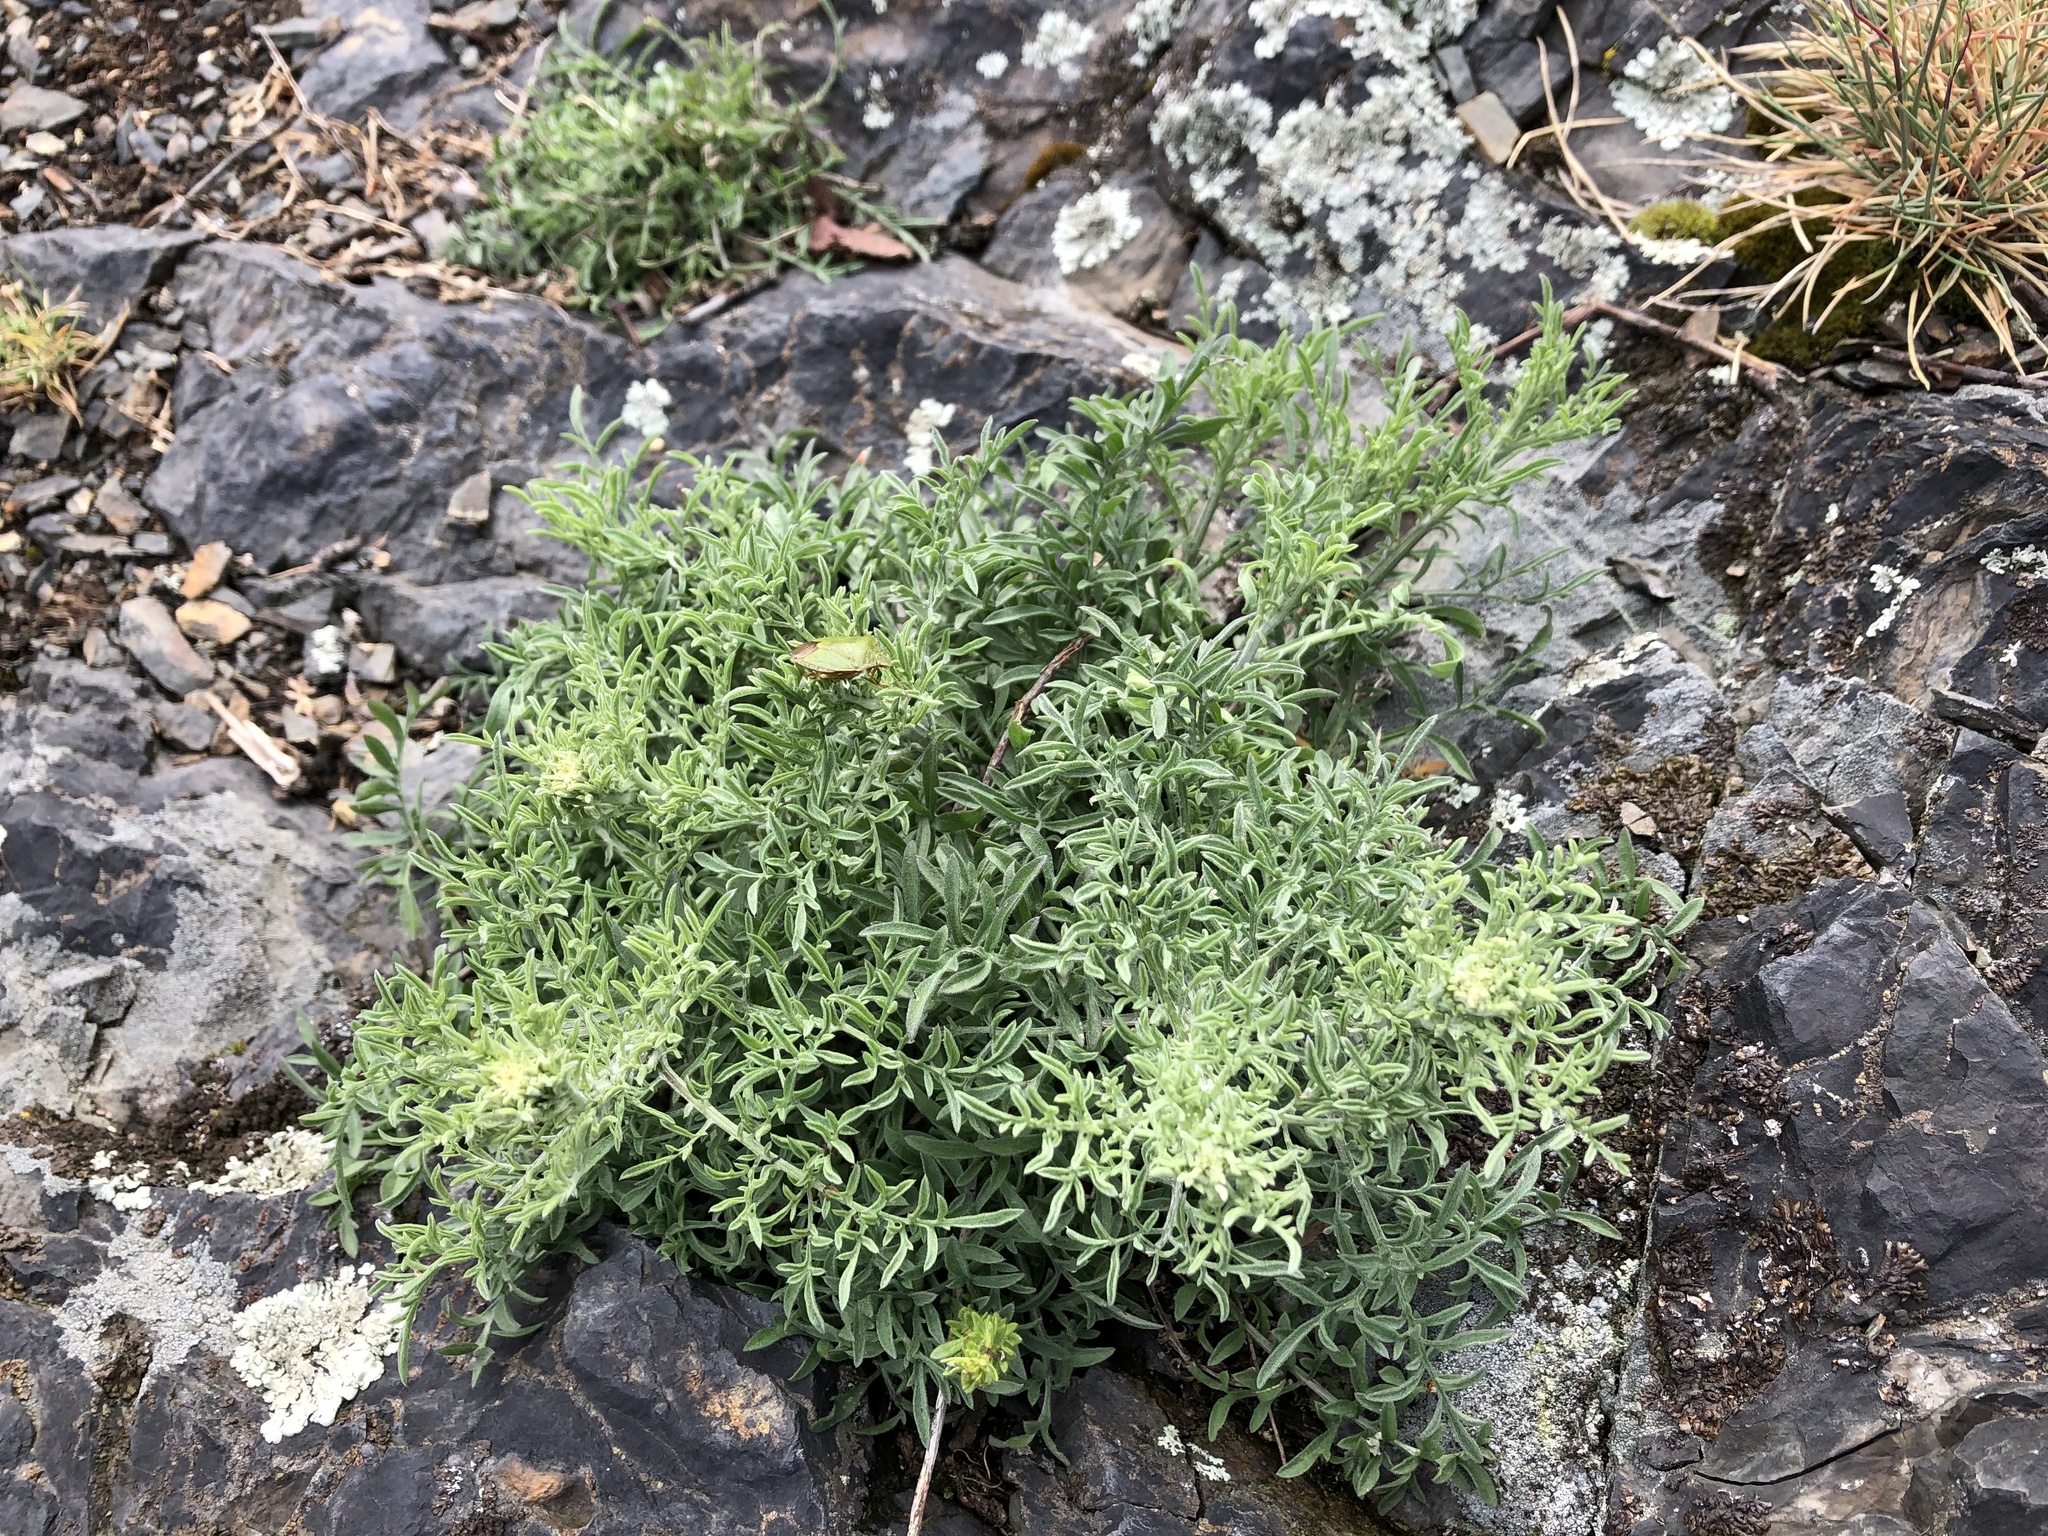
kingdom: Plantae
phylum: Tracheophyta
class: Magnoliopsida
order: Asterales
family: Asteraceae
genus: Centaurea
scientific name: Centaurea stoebe
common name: Spotted knapweed
